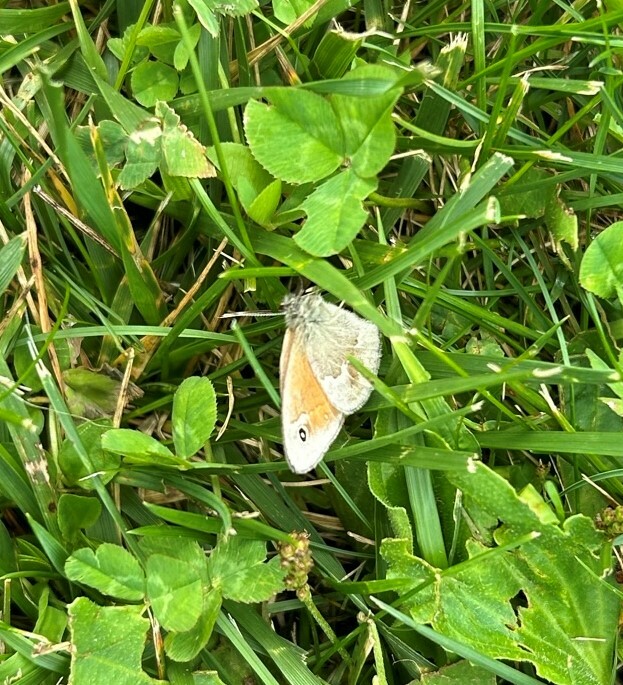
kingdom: Animalia
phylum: Arthropoda
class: Insecta
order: Lepidoptera
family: Nymphalidae
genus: Coenonympha
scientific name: Coenonympha california
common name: Common ringlet
